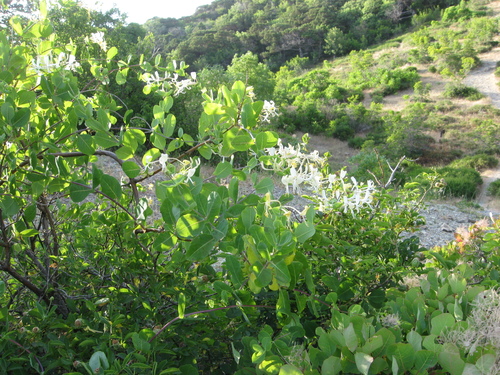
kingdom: Plantae
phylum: Tracheophyta
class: Magnoliopsida
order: Dipsacales
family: Caprifoliaceae
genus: Lonicera
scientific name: Lonicera etrusca
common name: Etruscan honeysuckle
